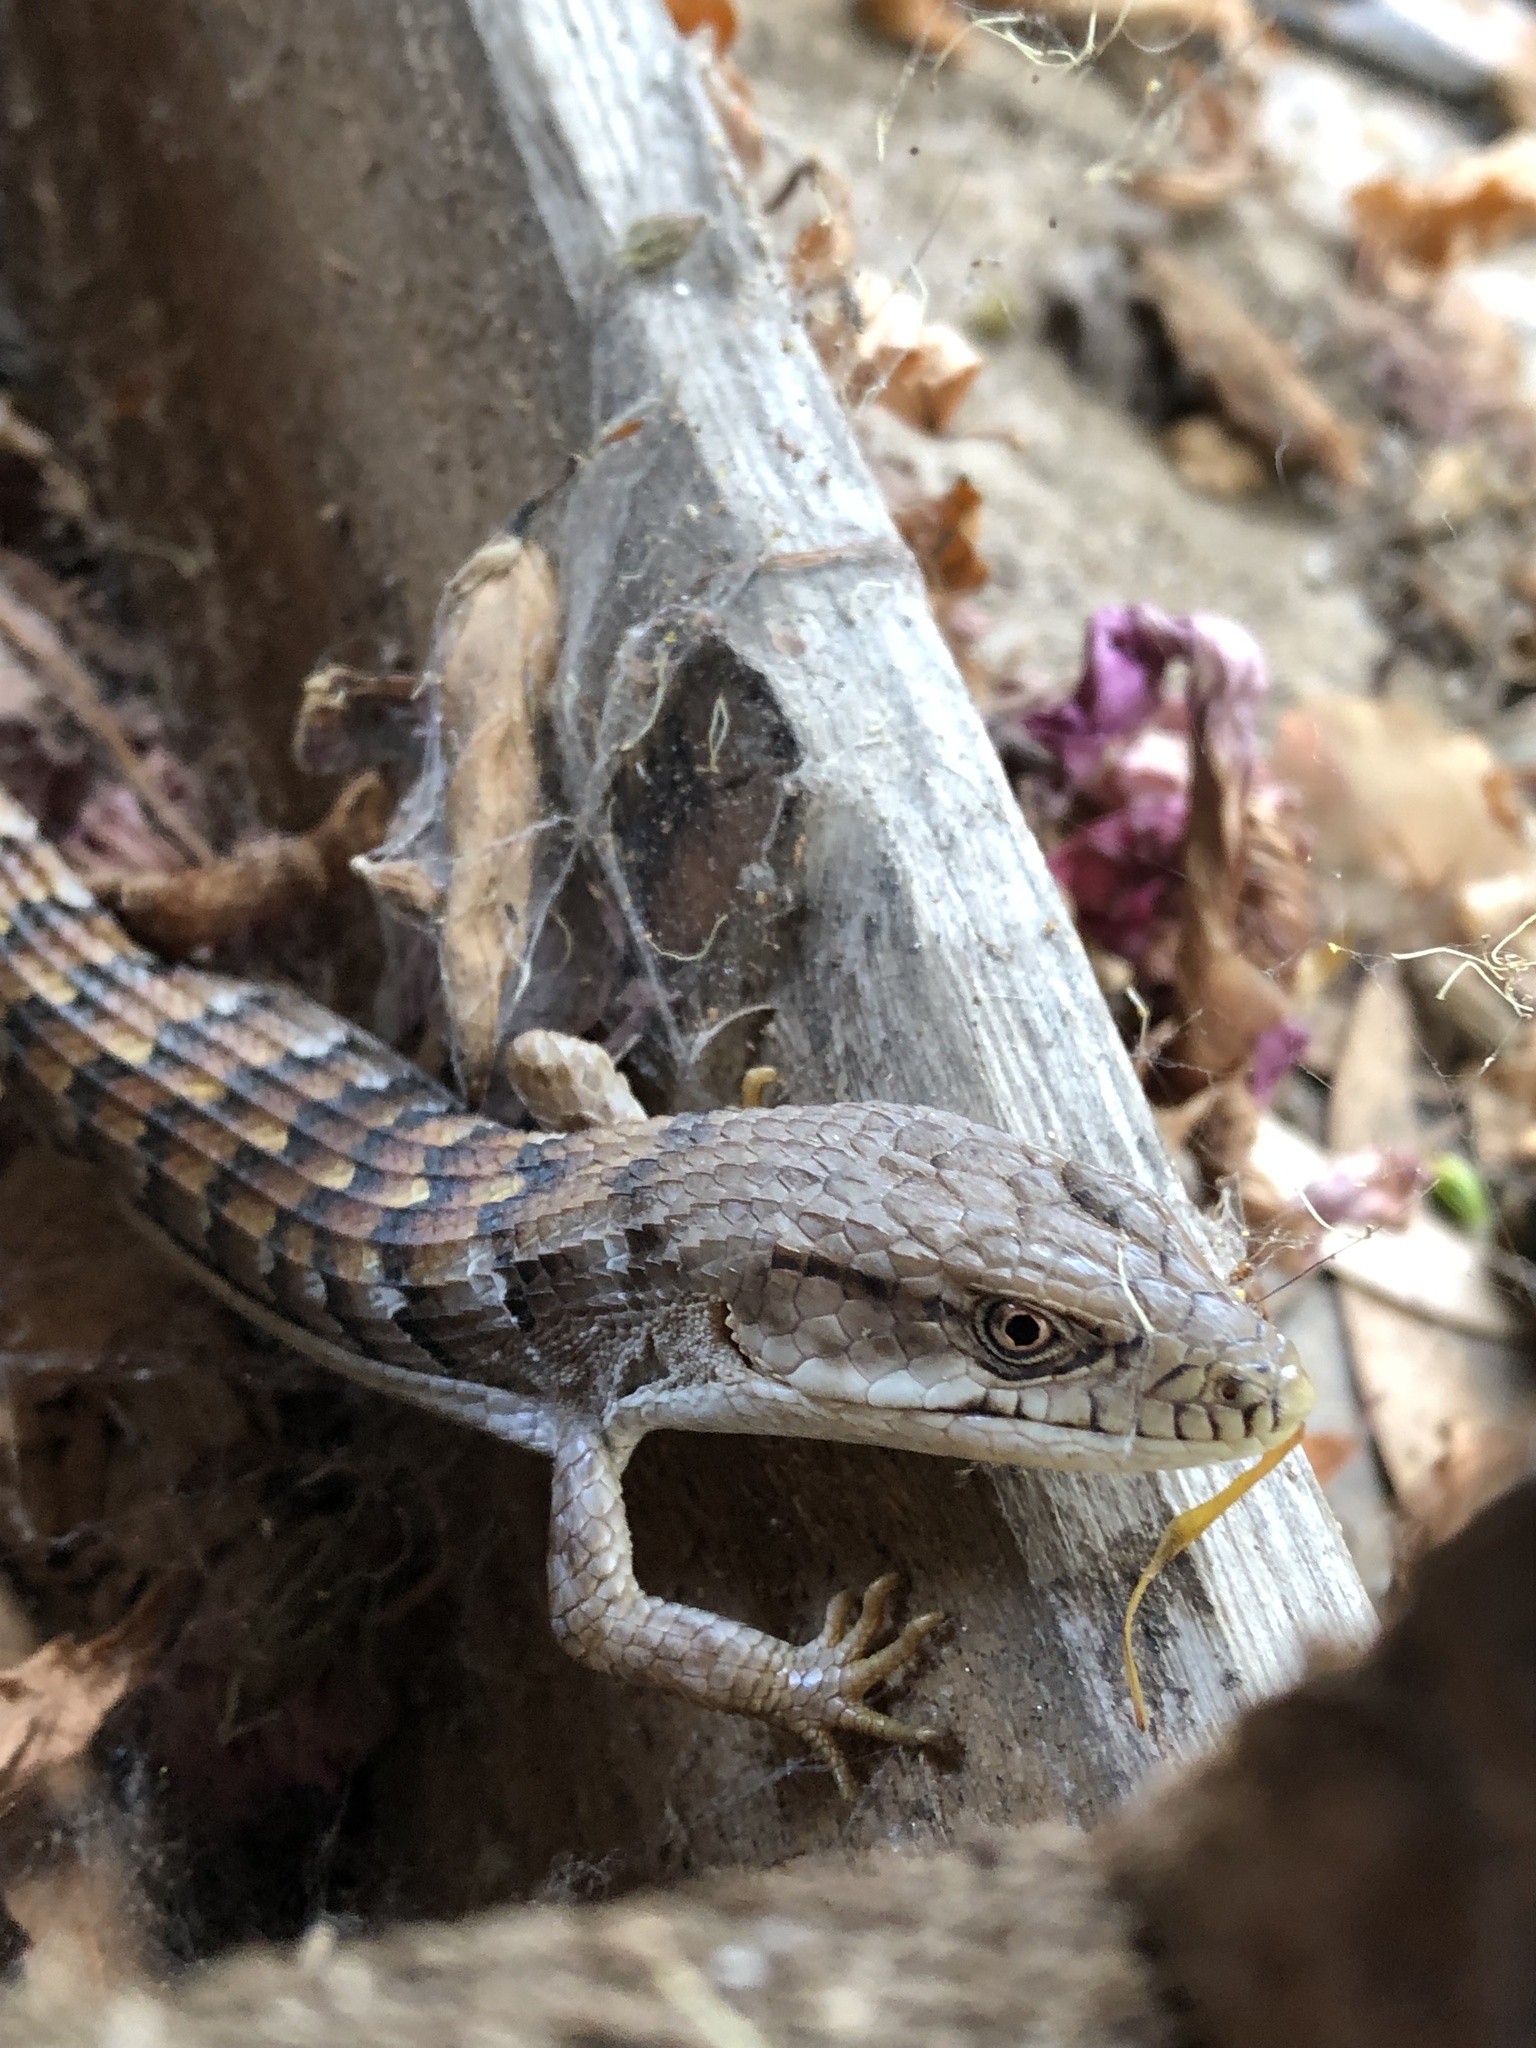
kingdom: Animalia
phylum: Chordata
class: Squamata
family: Anguidae
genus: Elgaria
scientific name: Elgaria multicarinata
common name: Southern alligator lizard
